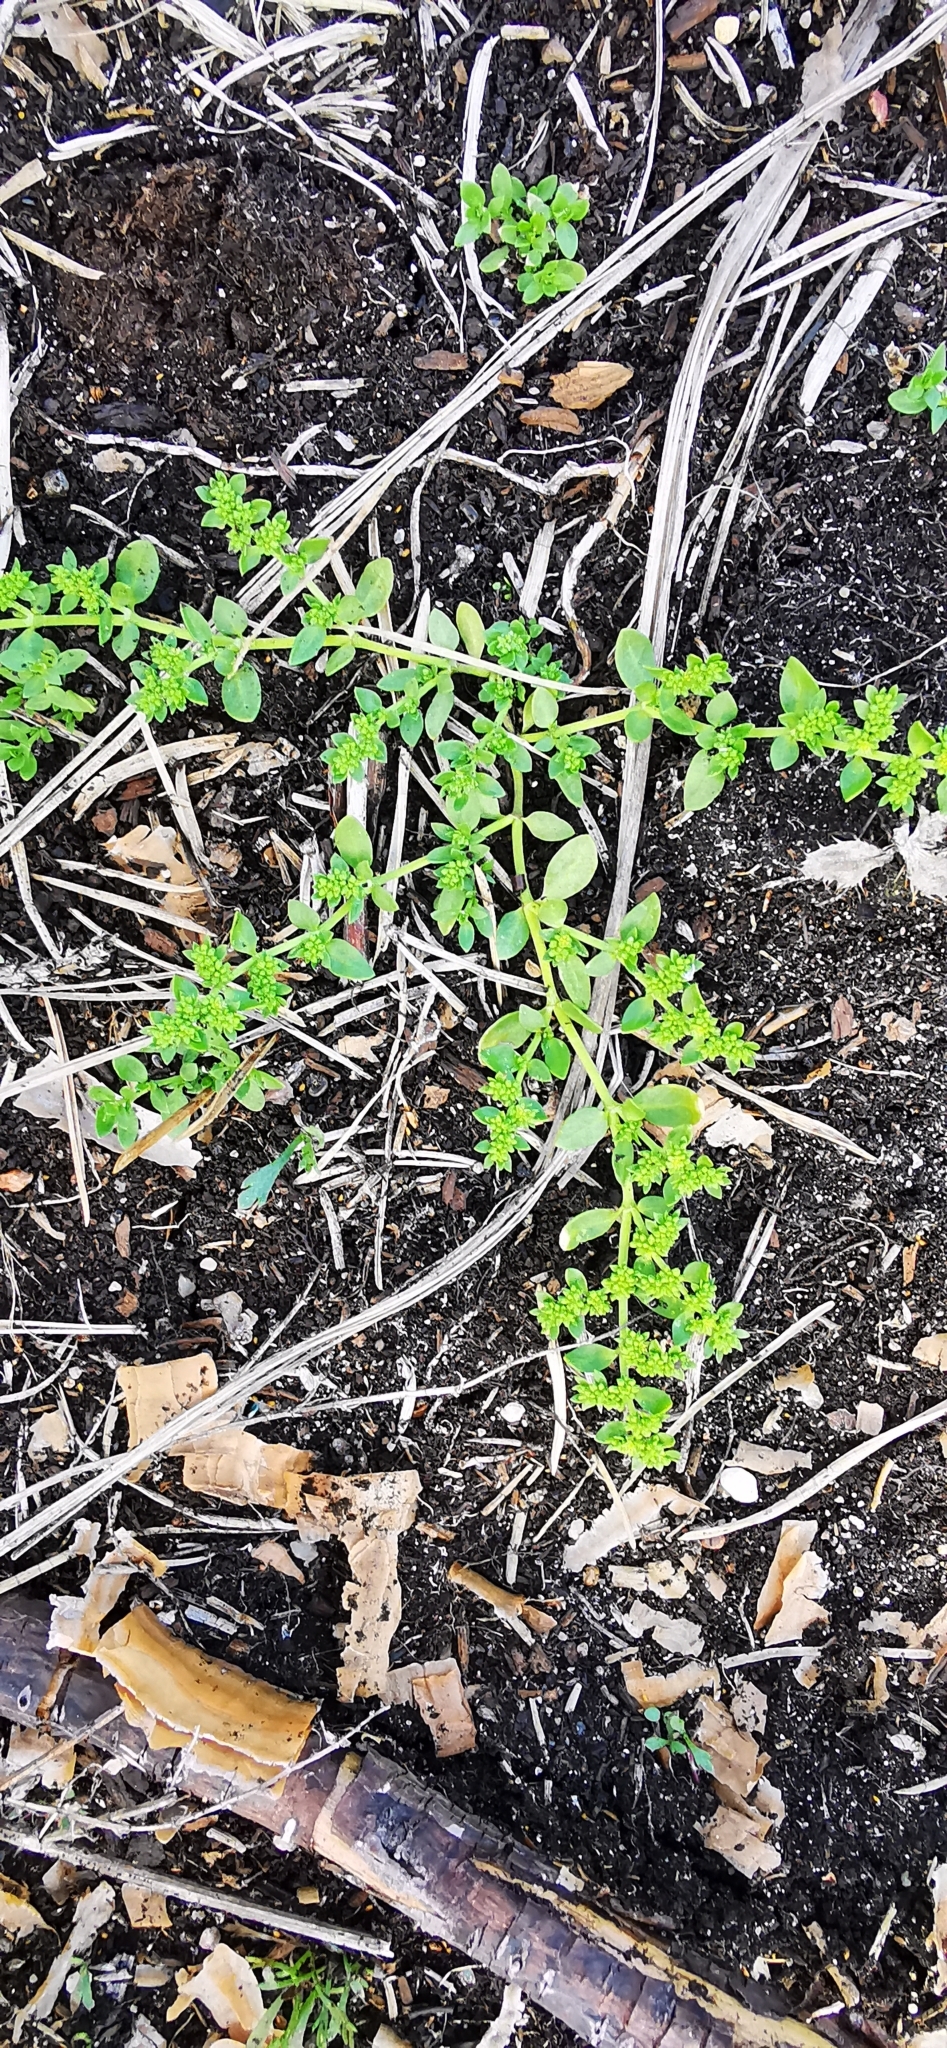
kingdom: Plantae
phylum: Tracheophyta
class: Magnoliopsida
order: Caryophyllales
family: Caryophyllaceae
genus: Herniaria
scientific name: Herniaria glabra
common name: Smooth rupturewort
